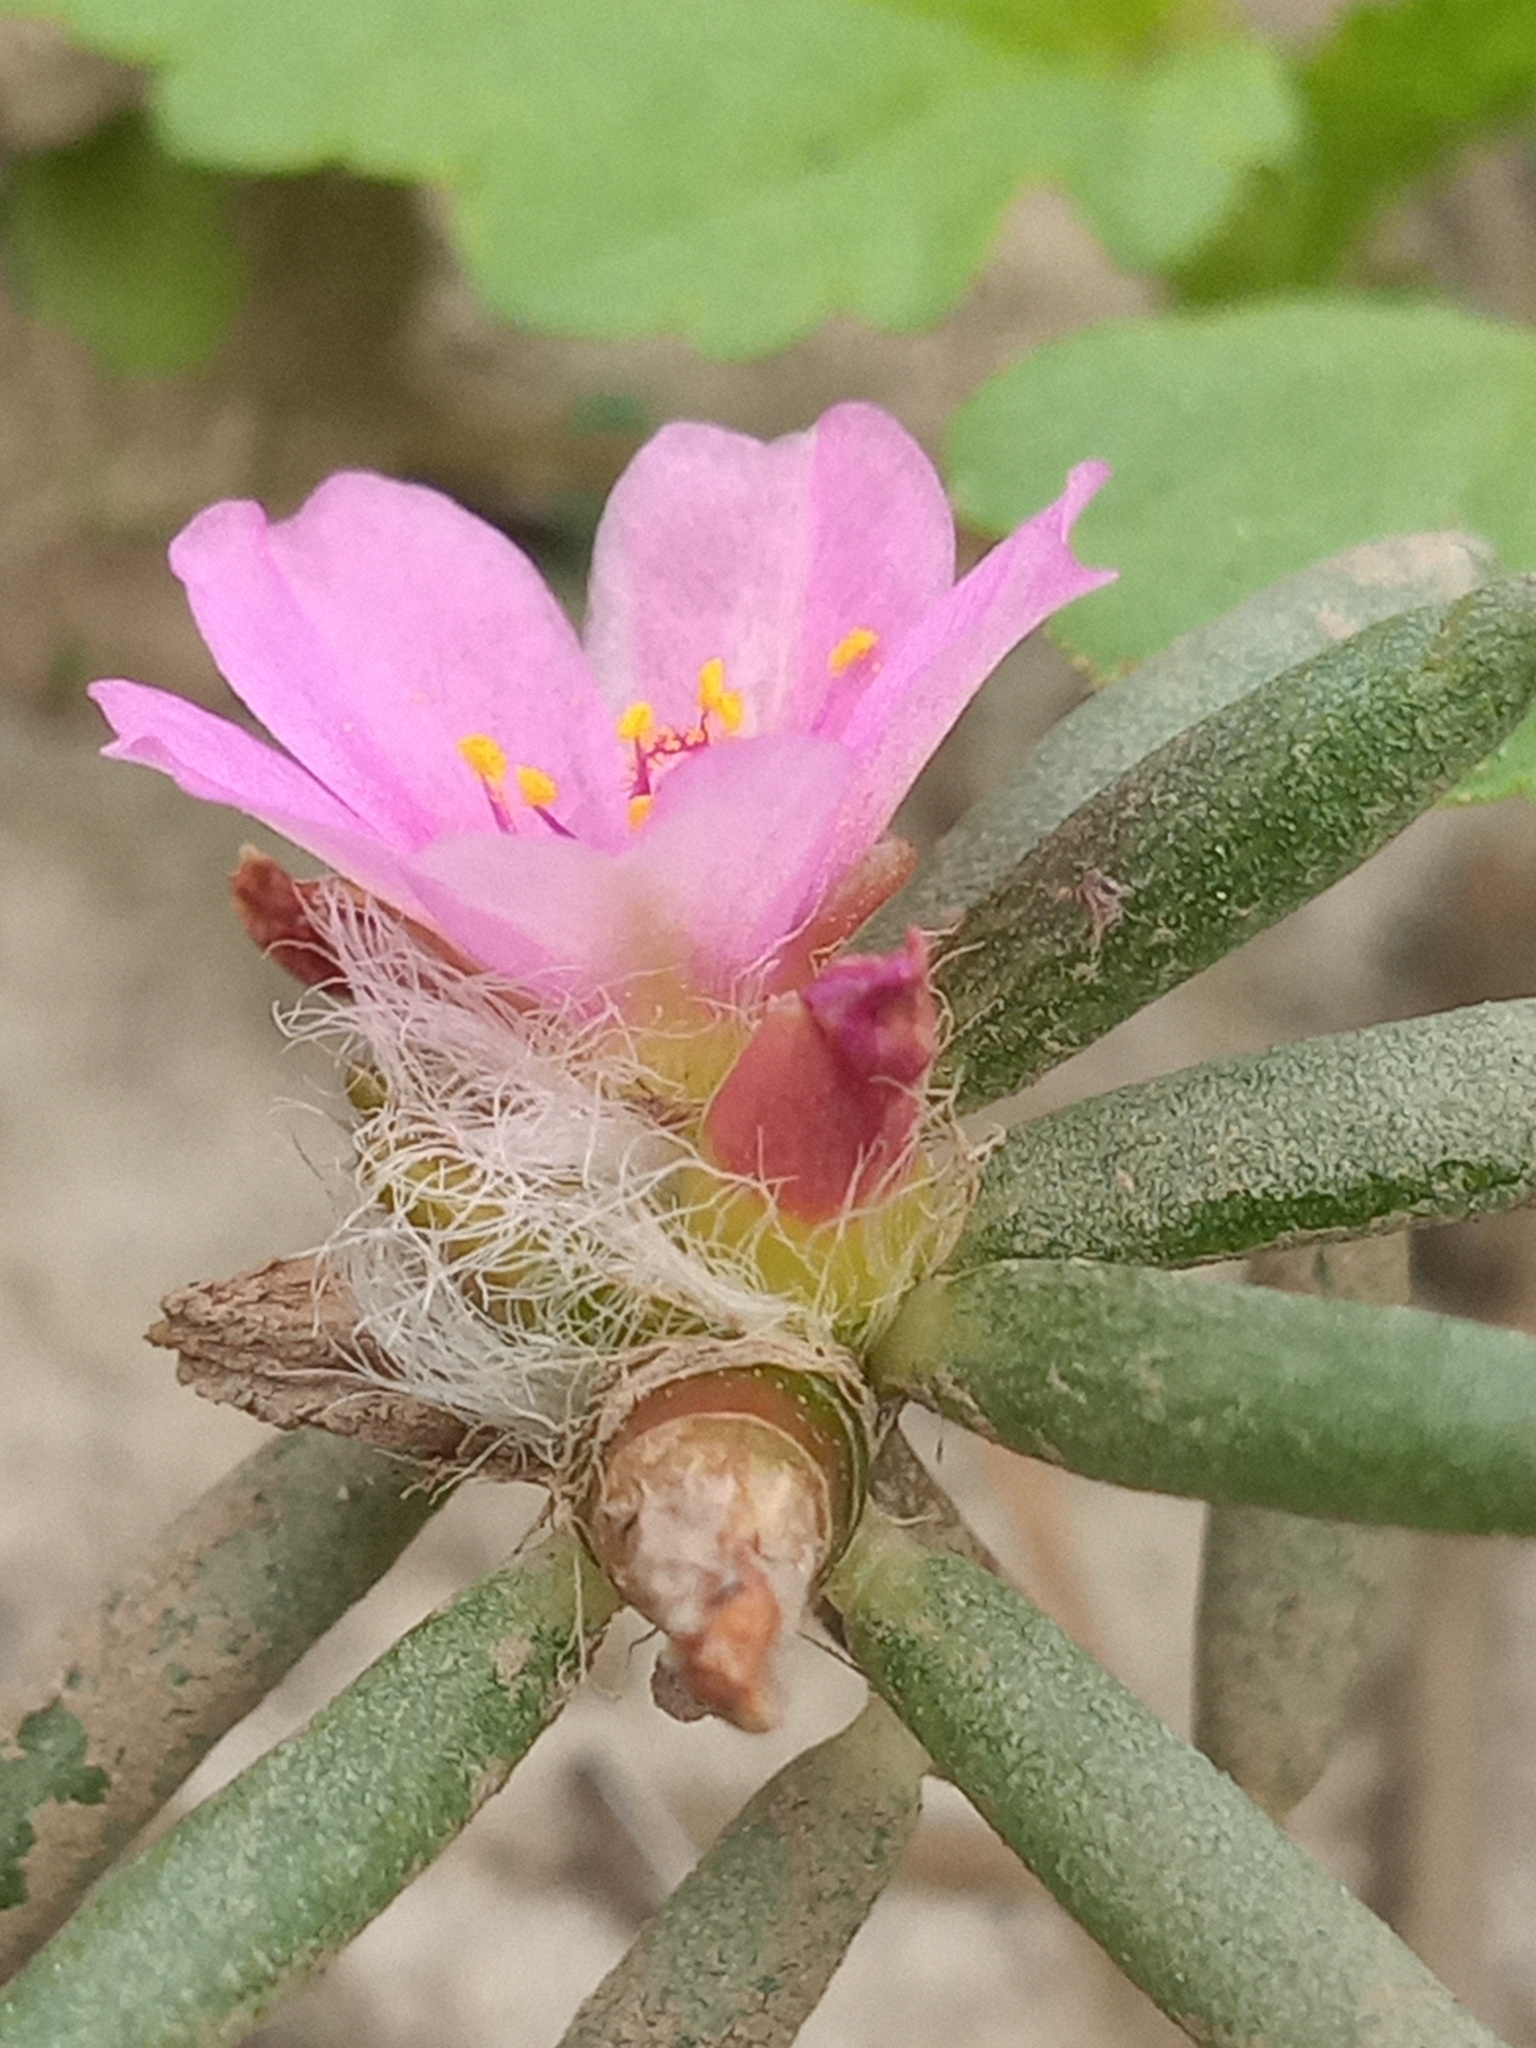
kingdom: Plantae
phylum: Tracheophyta
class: Magnoliopsida
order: Caryophyllales
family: Portulacaceae
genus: Portulaca
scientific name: Portulaca pilosa
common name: Kiss me quick
